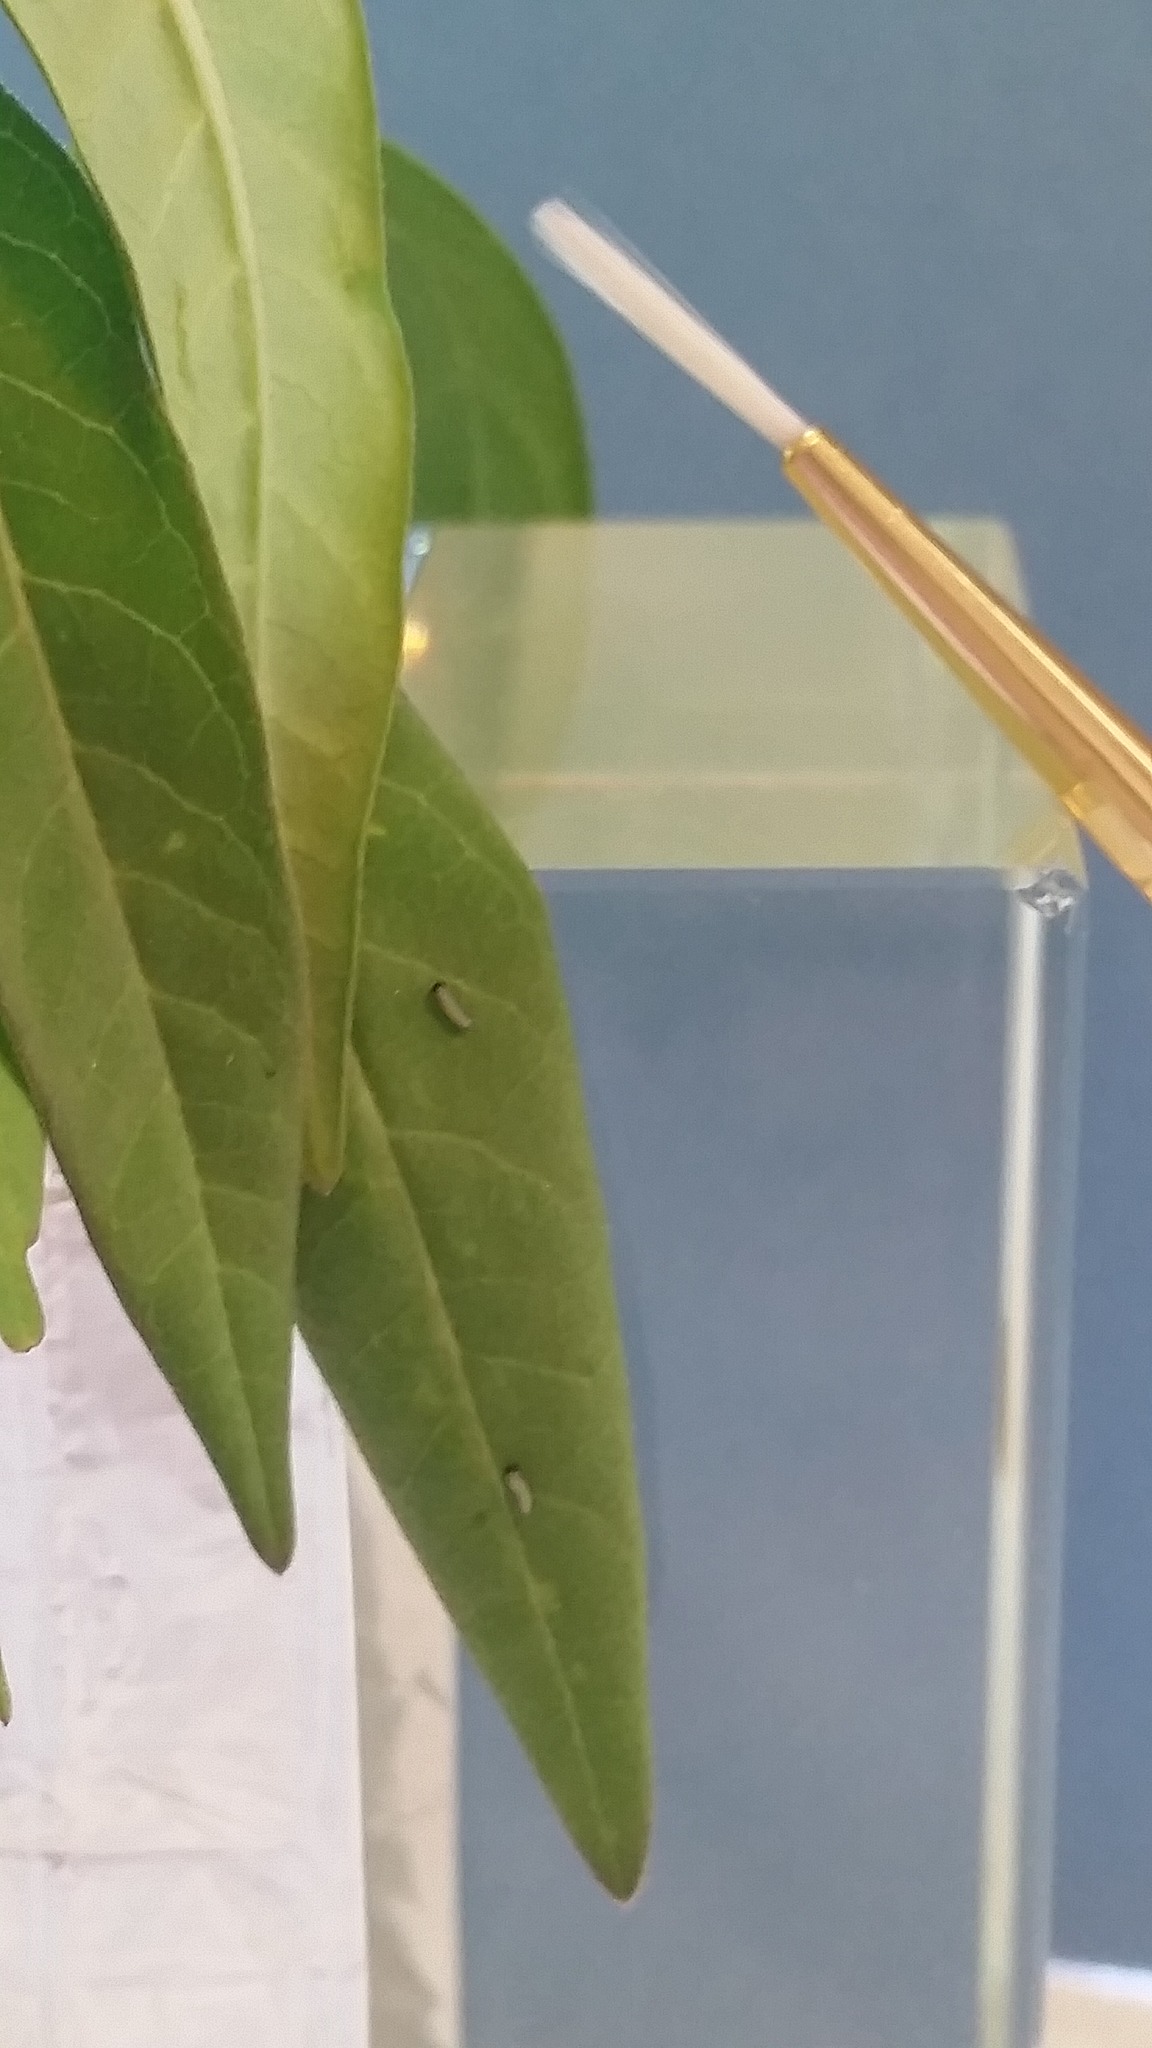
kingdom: Animalia
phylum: Arthropoda
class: Insecta
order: Lepidoptera
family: Nymphalidae
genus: Danaus
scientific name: Danaus plexippus
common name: Monarch
